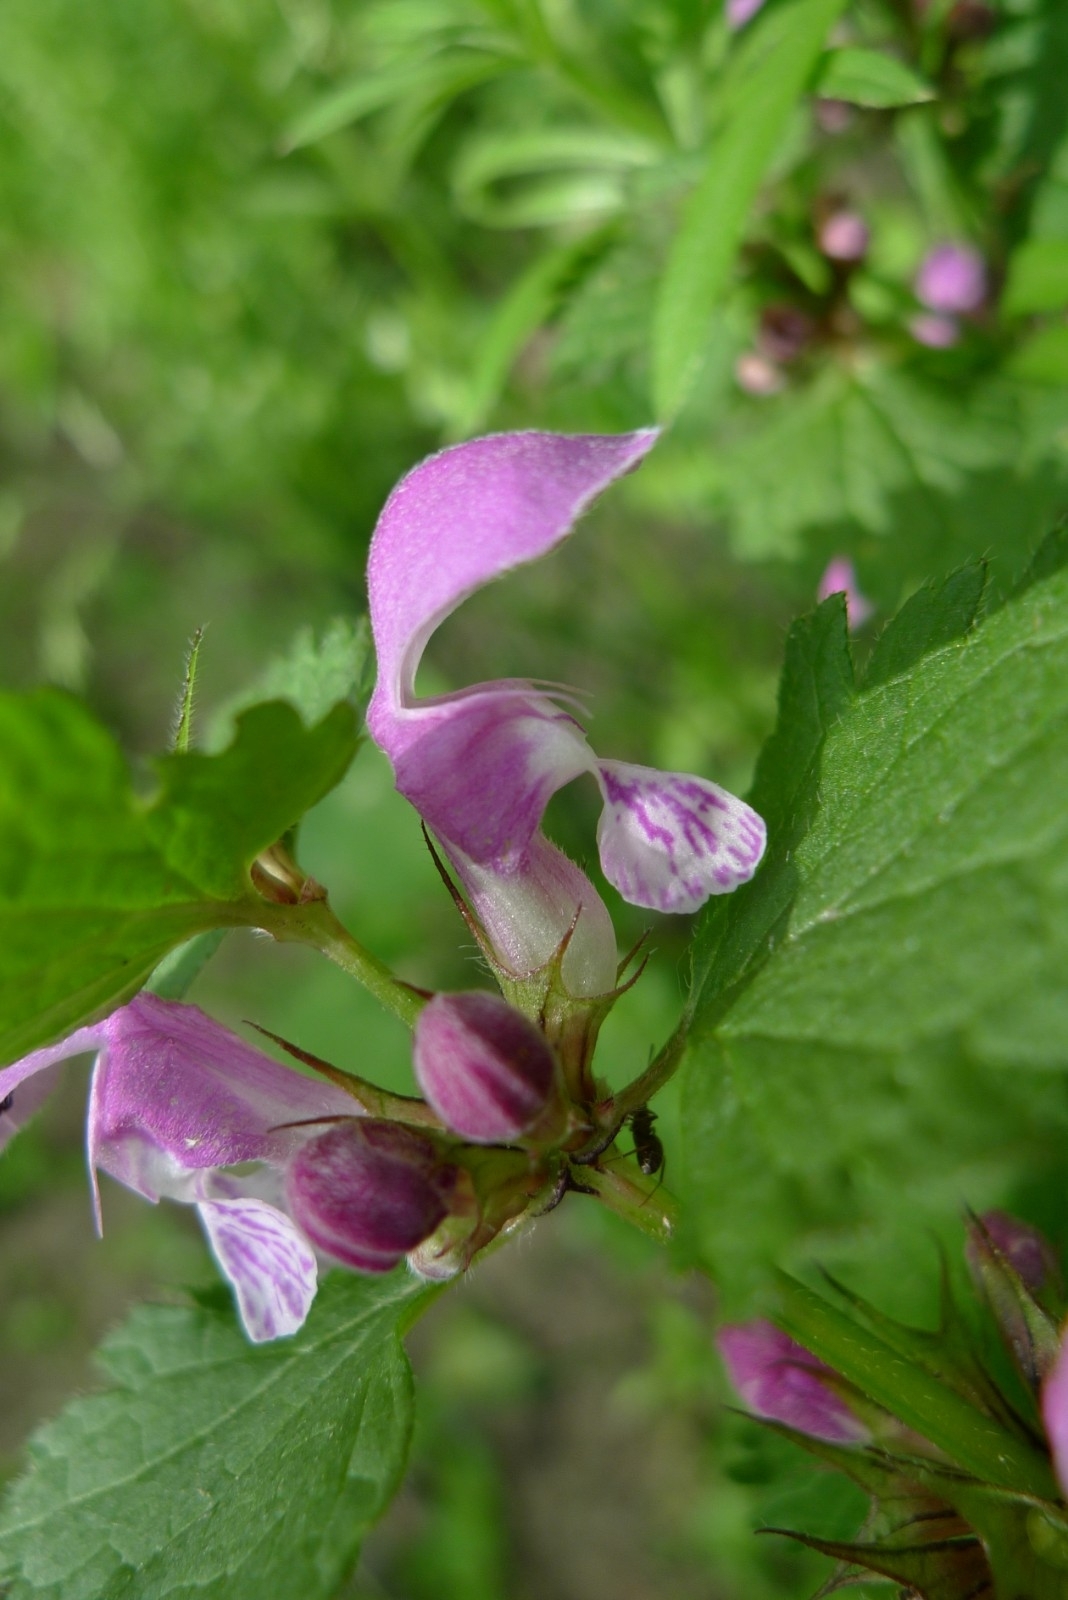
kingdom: Plantae
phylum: Tracheophyta
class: Magnoliopsida
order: Lamiales
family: Lamiaceae
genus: Lamium
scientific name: Lamium maculatum
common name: Spotted dead-nettle
